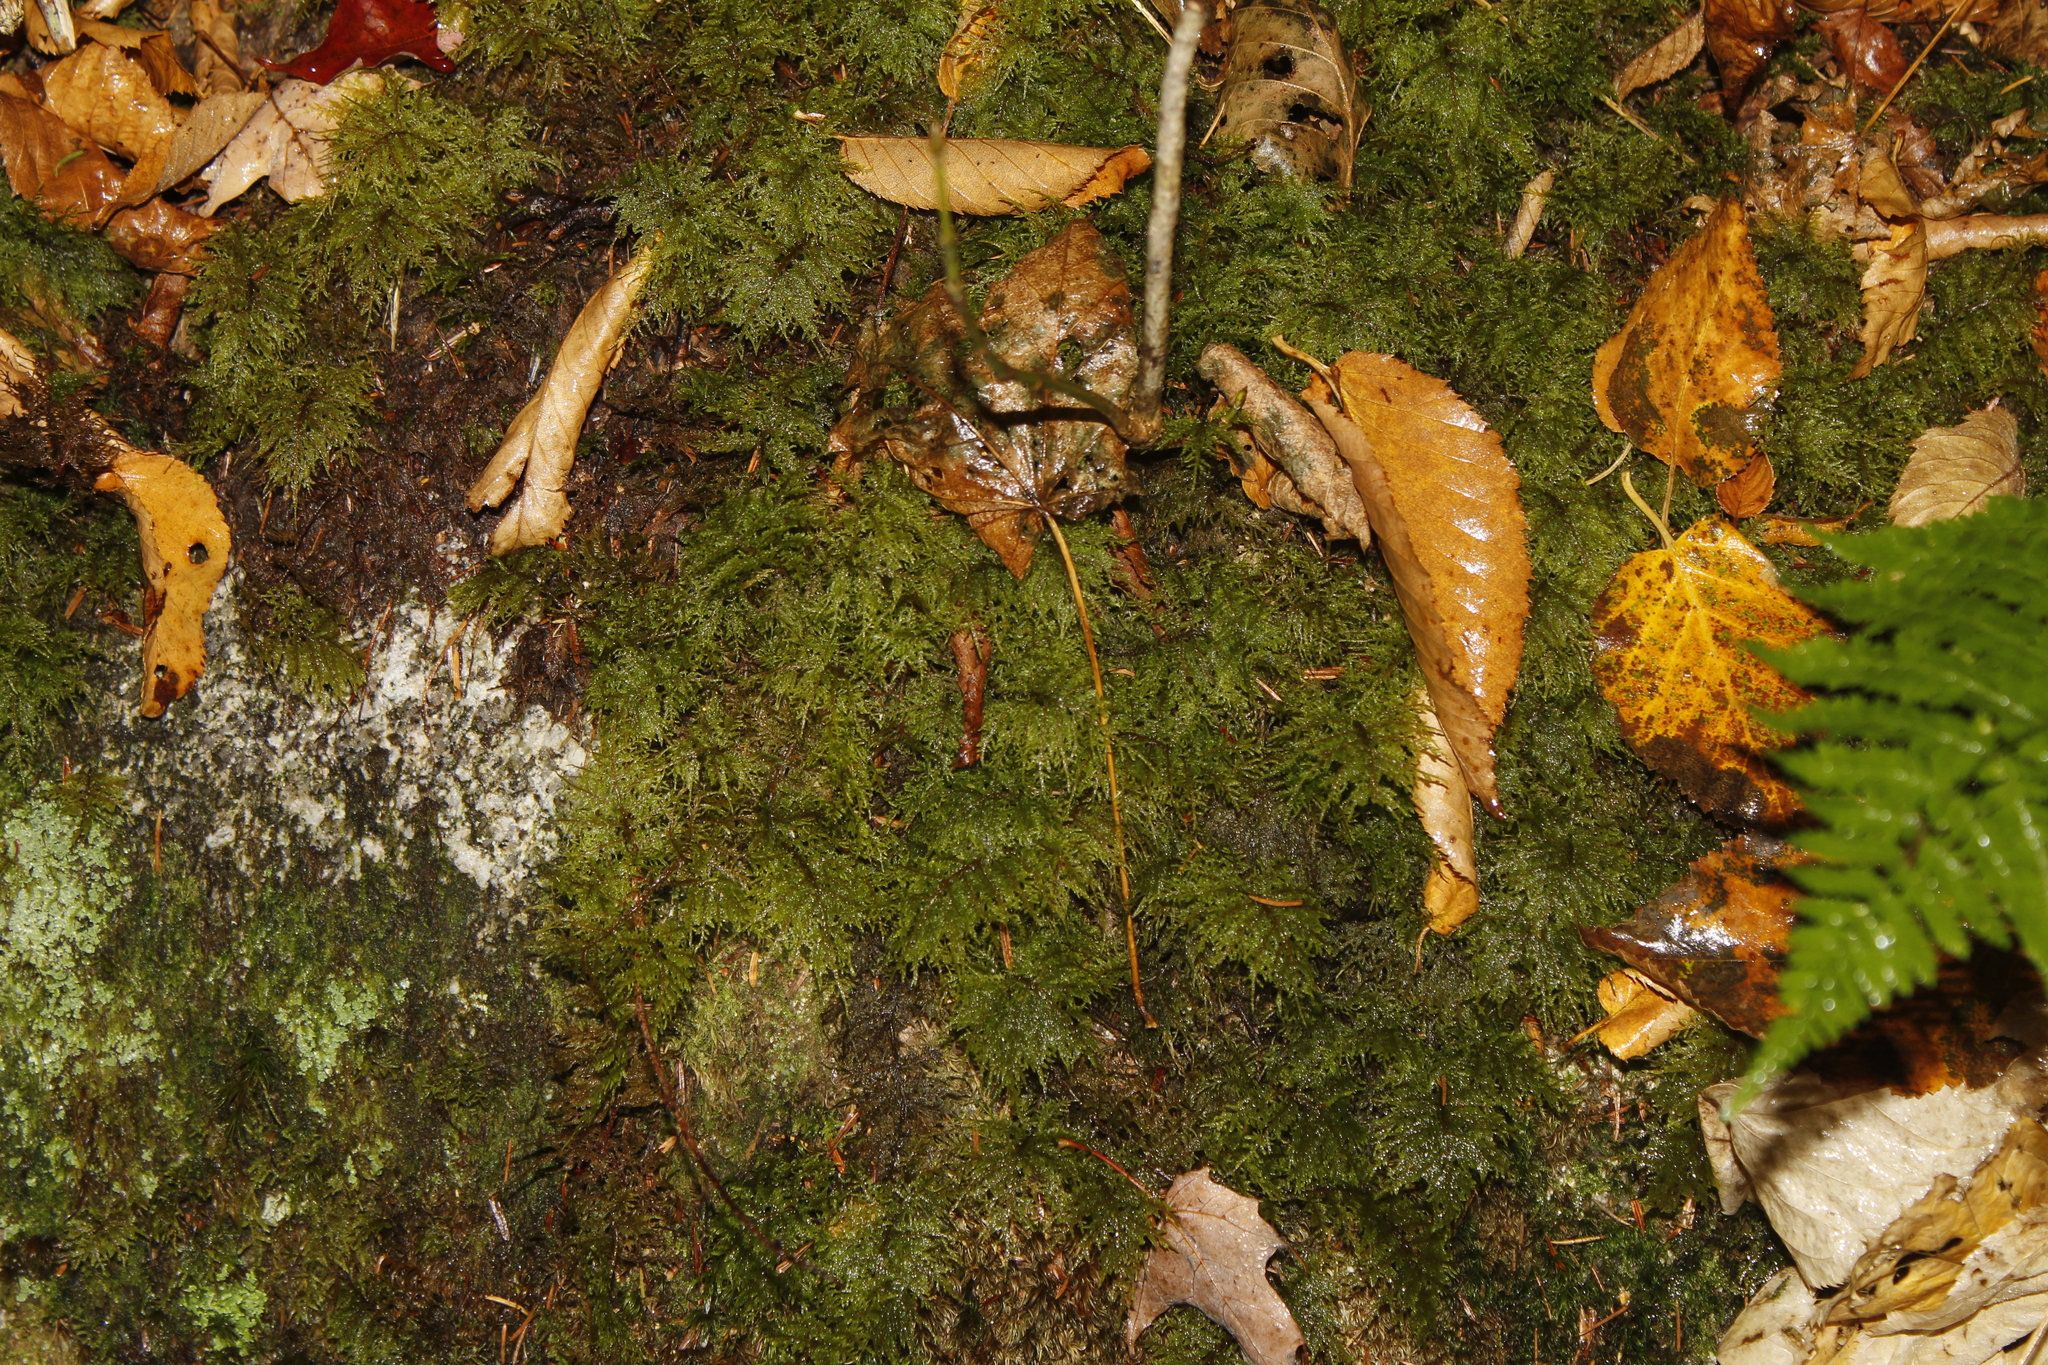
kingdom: Plantae
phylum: Bryophyta
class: Bryopsida
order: Hypnales
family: Hylocomiaceae
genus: Hylocomium
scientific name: Hylocomium splendens
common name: Stairstep moss
